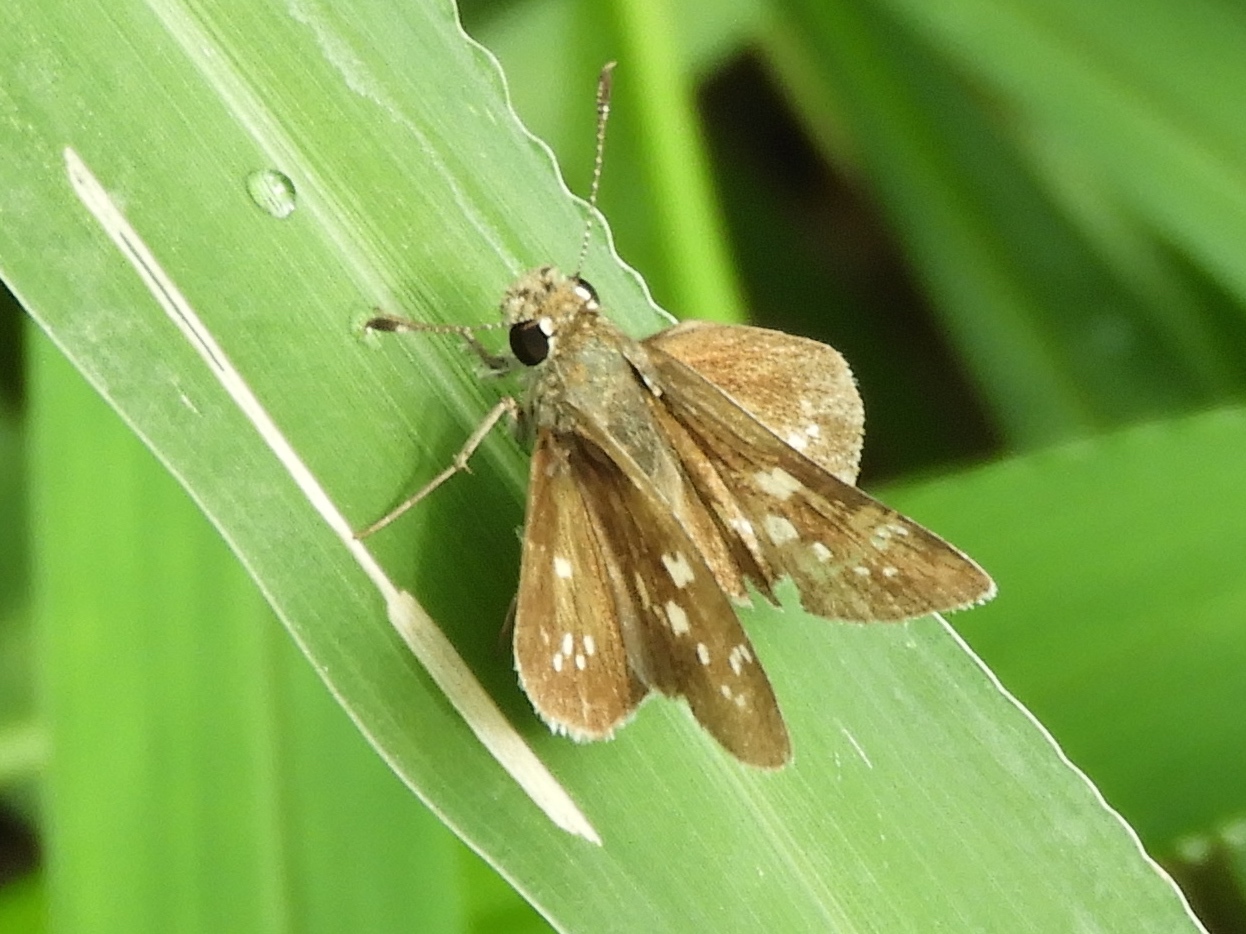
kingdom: Animalia
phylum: Arthropoda
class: Insecta
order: Lepidoptera
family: Hesperiidae
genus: Mastor
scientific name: Mastor tolteca
